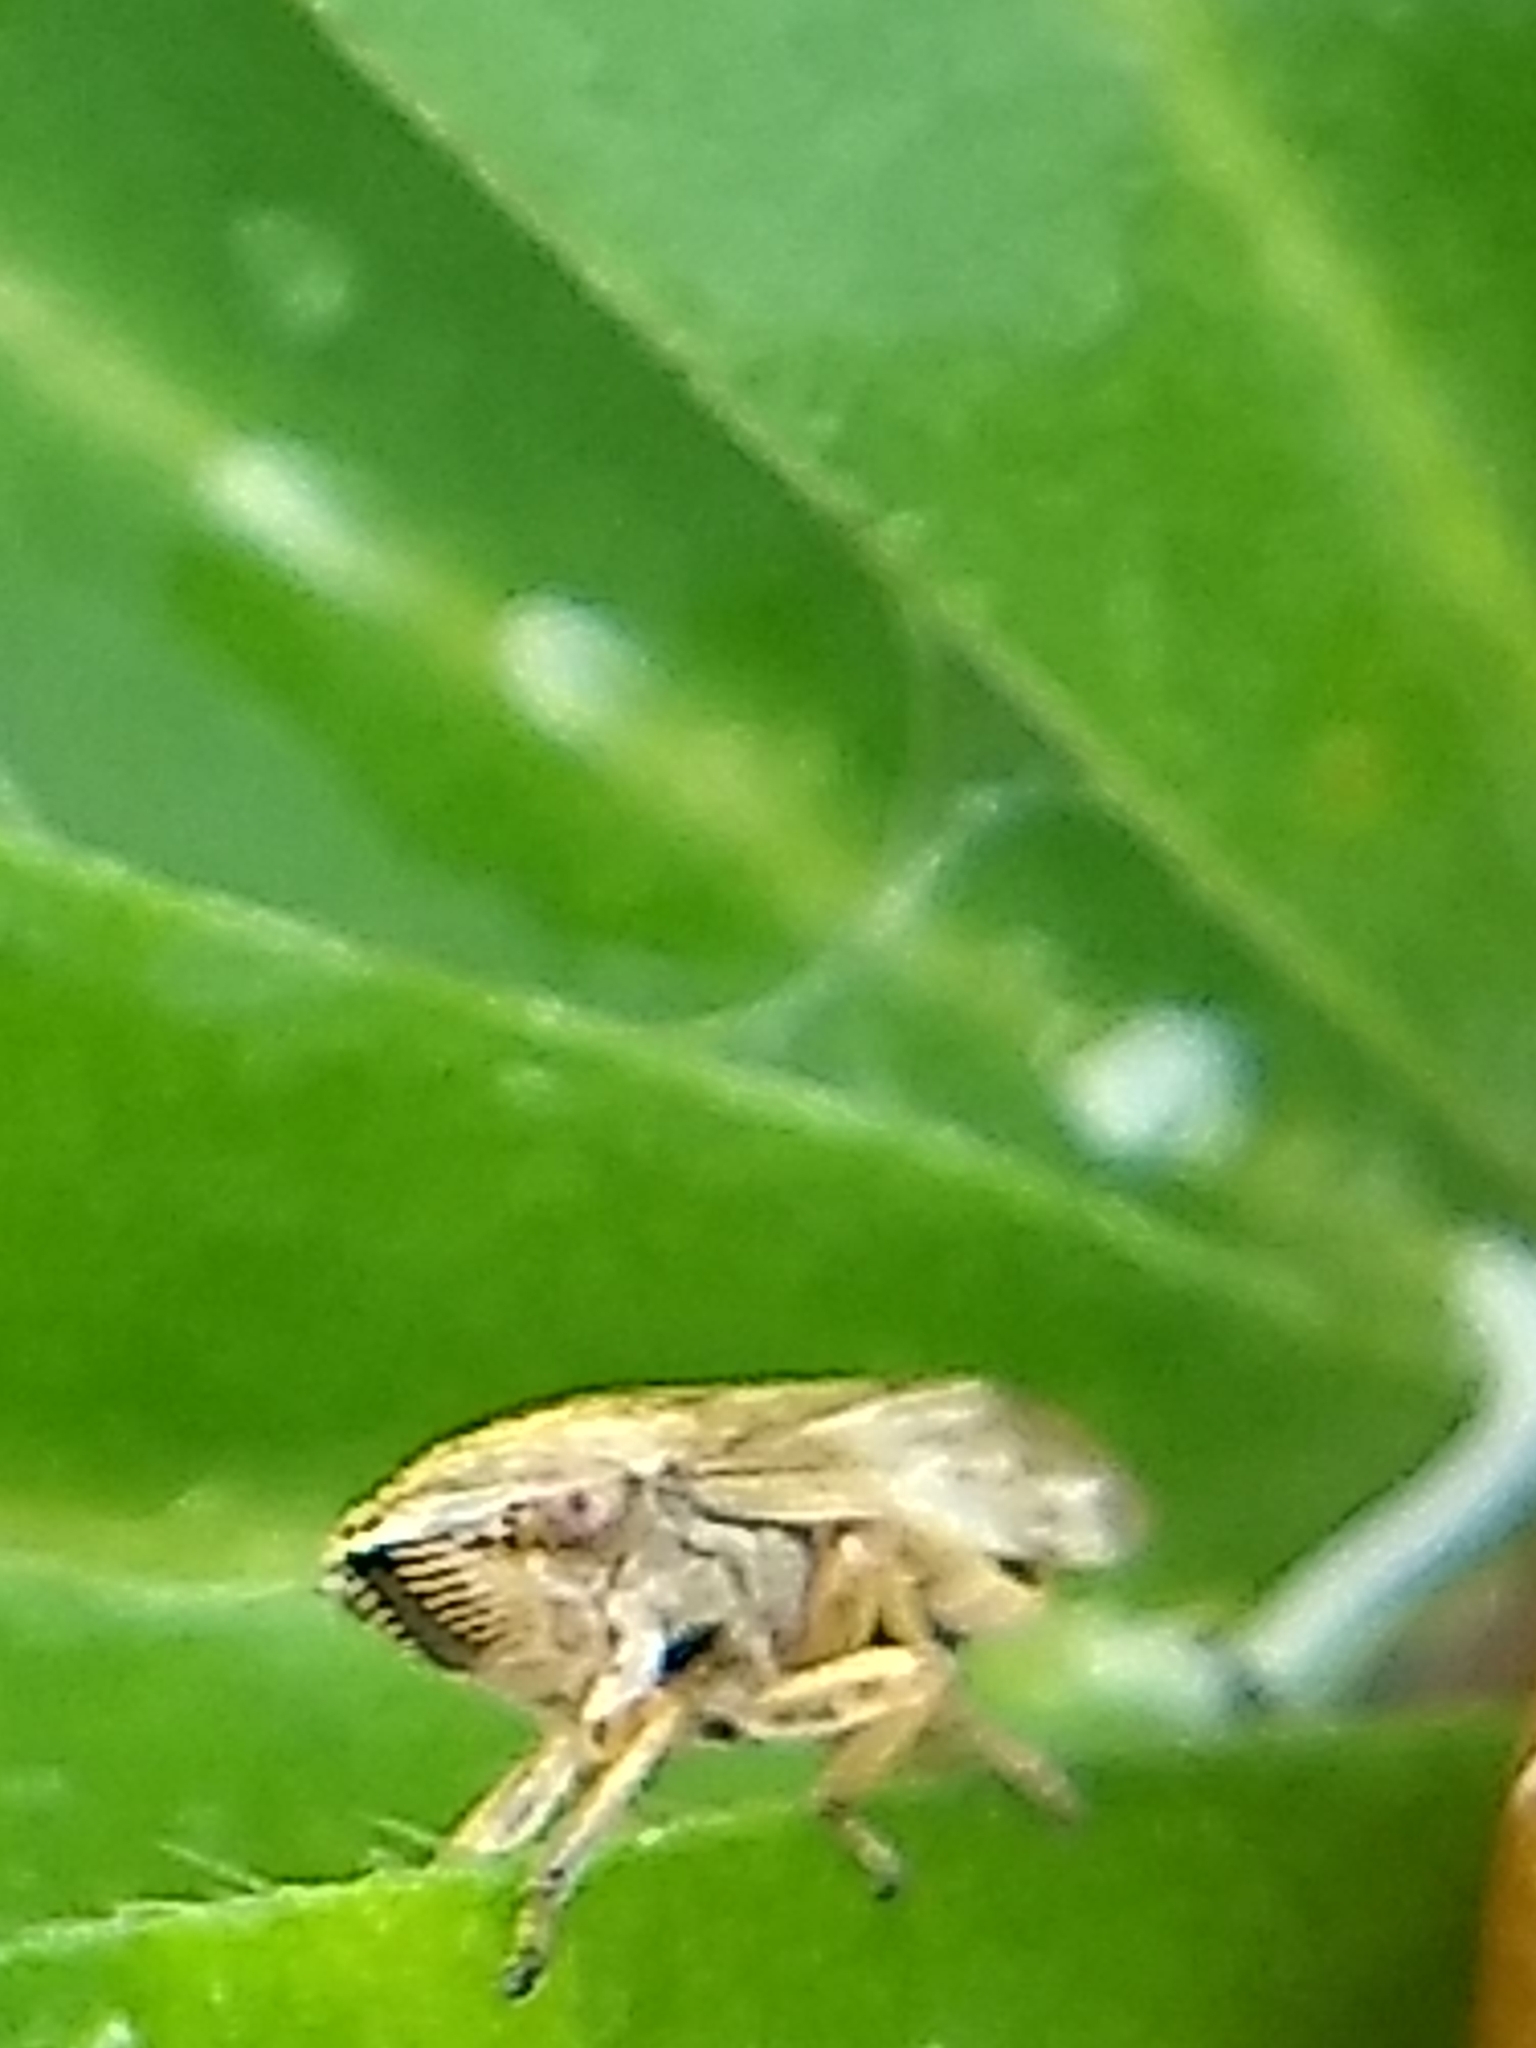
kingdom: Animalia
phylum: Arthropoda
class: Insecta
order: Hemiptera
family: Aphrophoridae
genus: Philaenus
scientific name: Philaenus spumarius
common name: Meadow spittlebug
